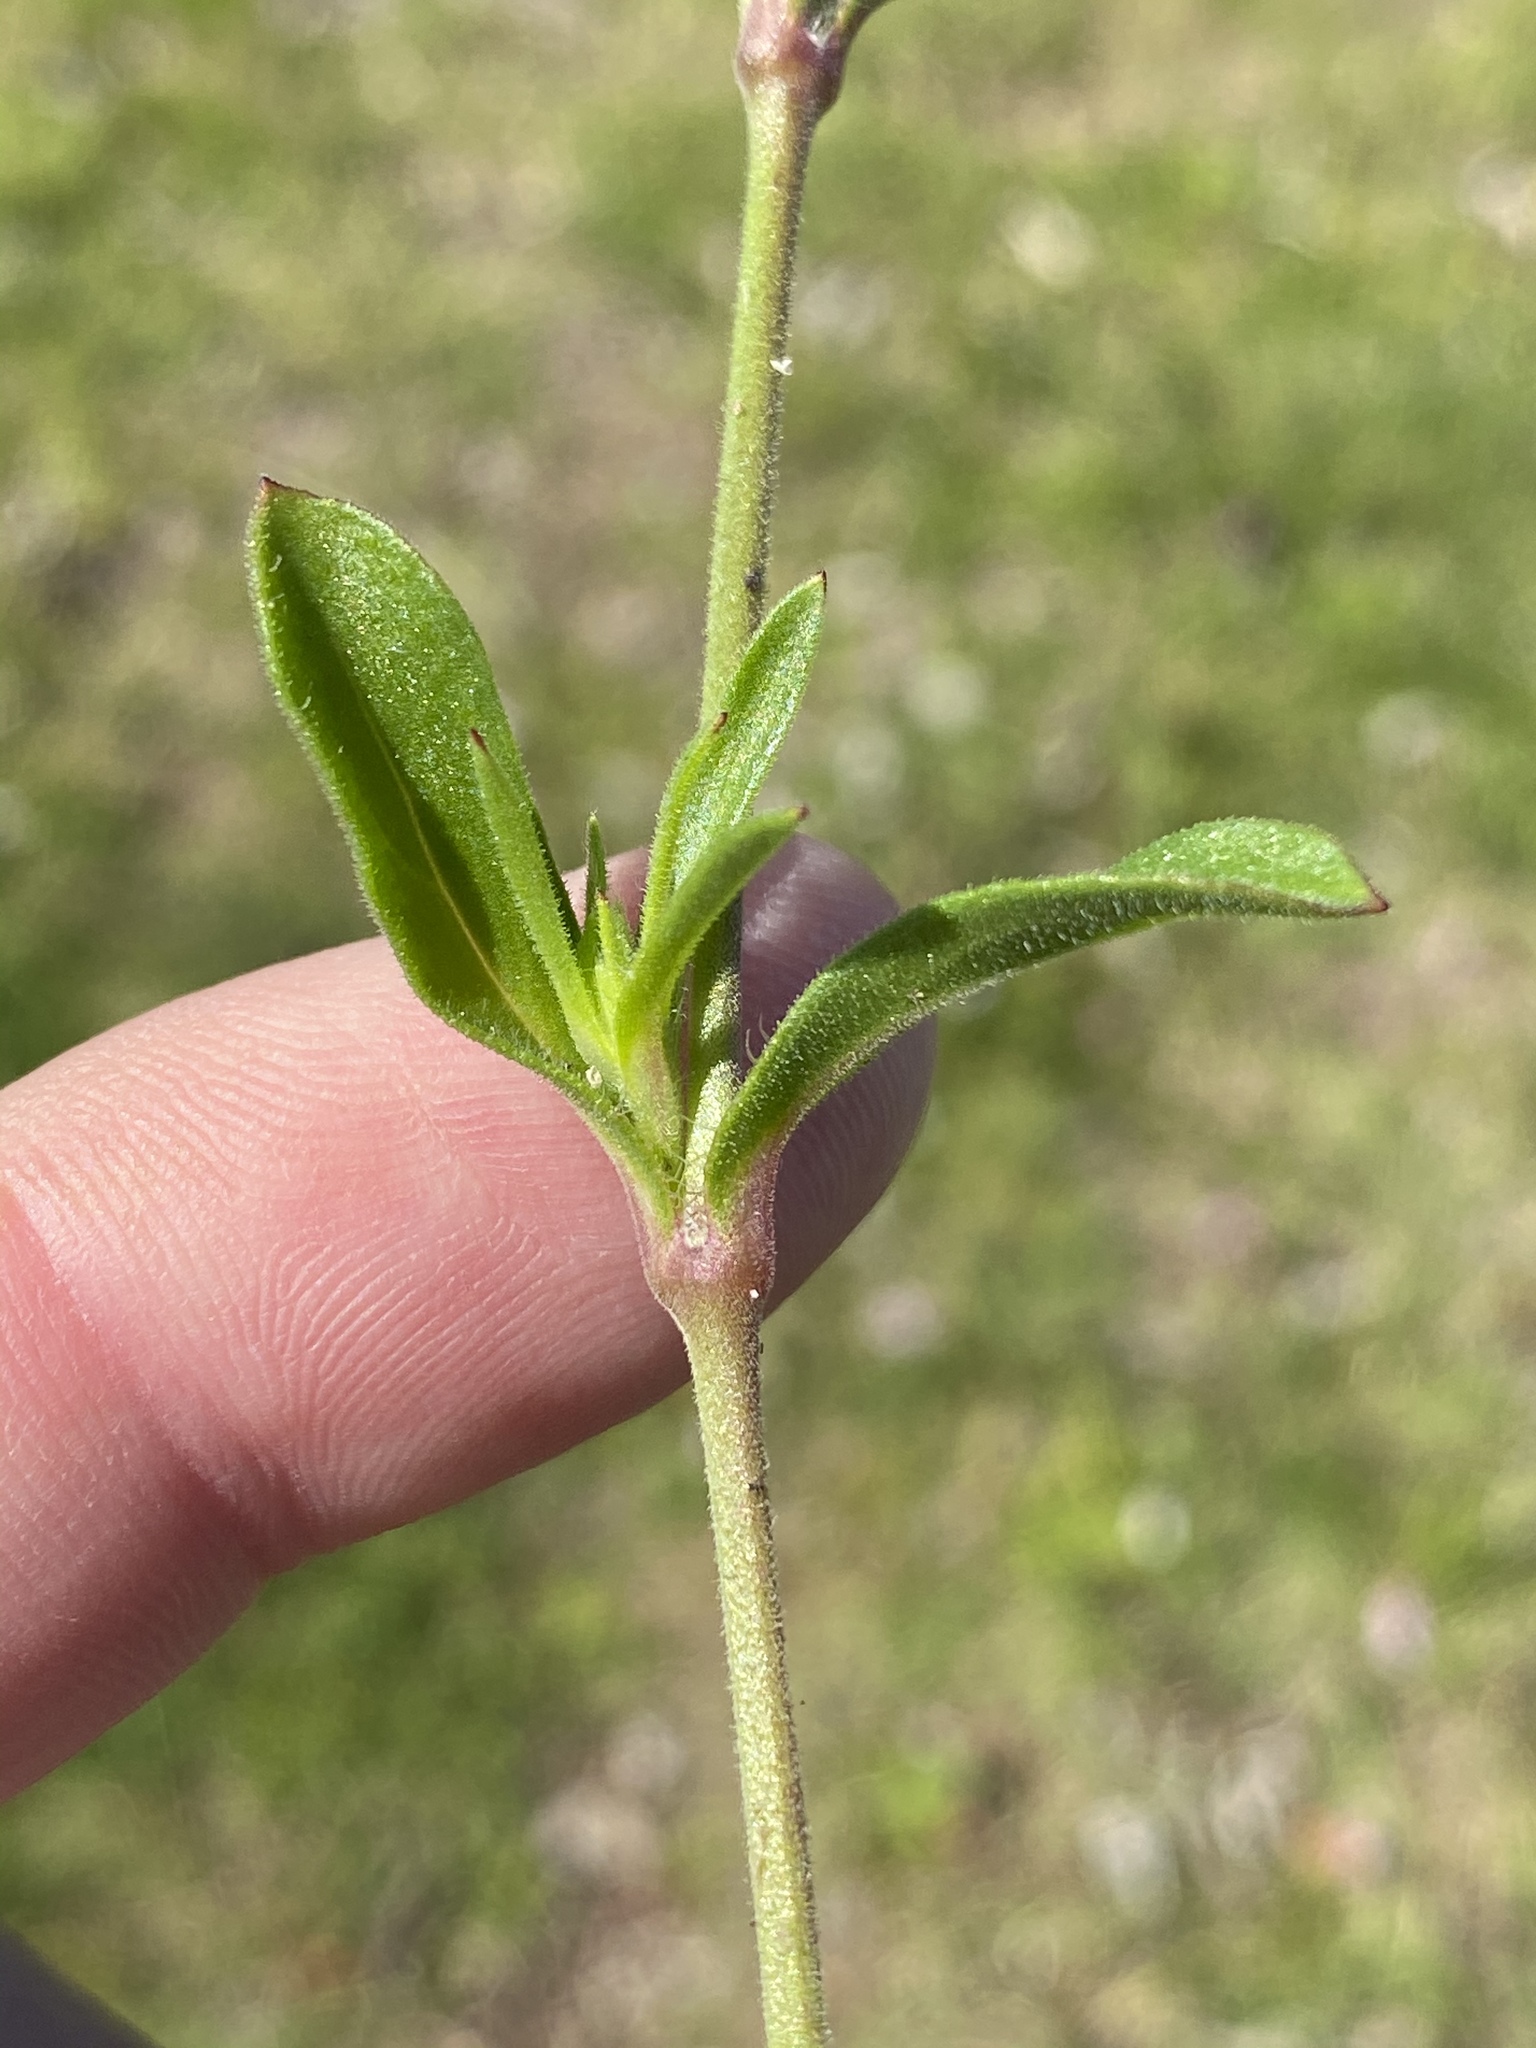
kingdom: Plantae
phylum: Tracheophyta
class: Magnoliopsida
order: Caryophyllales
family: Caryophyllaceae
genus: Silene
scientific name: Silene gallica
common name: Small-flowered catchfly
